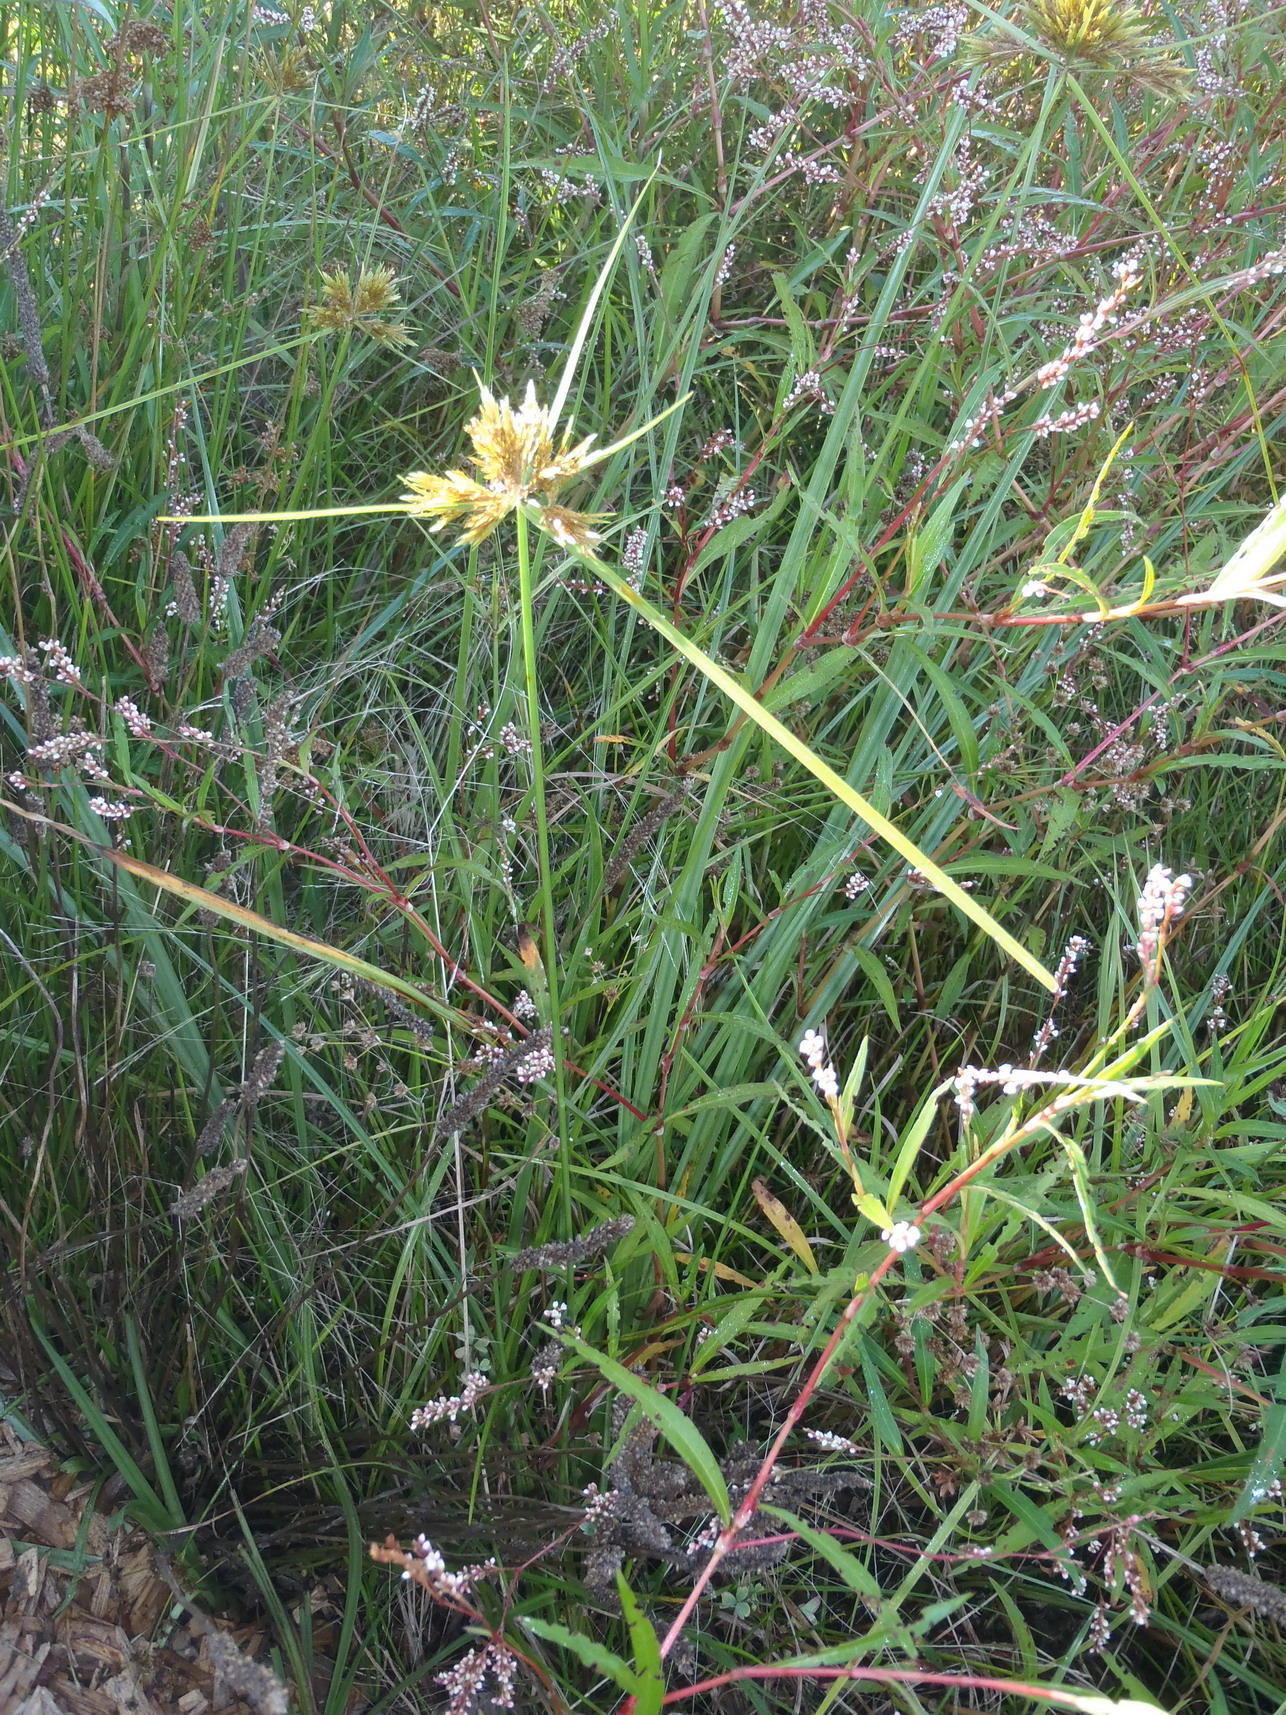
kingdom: Plantae
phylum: Tracheophyta
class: Liliopsida
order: Poales
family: Cyperaceae
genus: Cyperus
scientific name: Cyperus polystachyos
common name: Bunchy flat sedge
